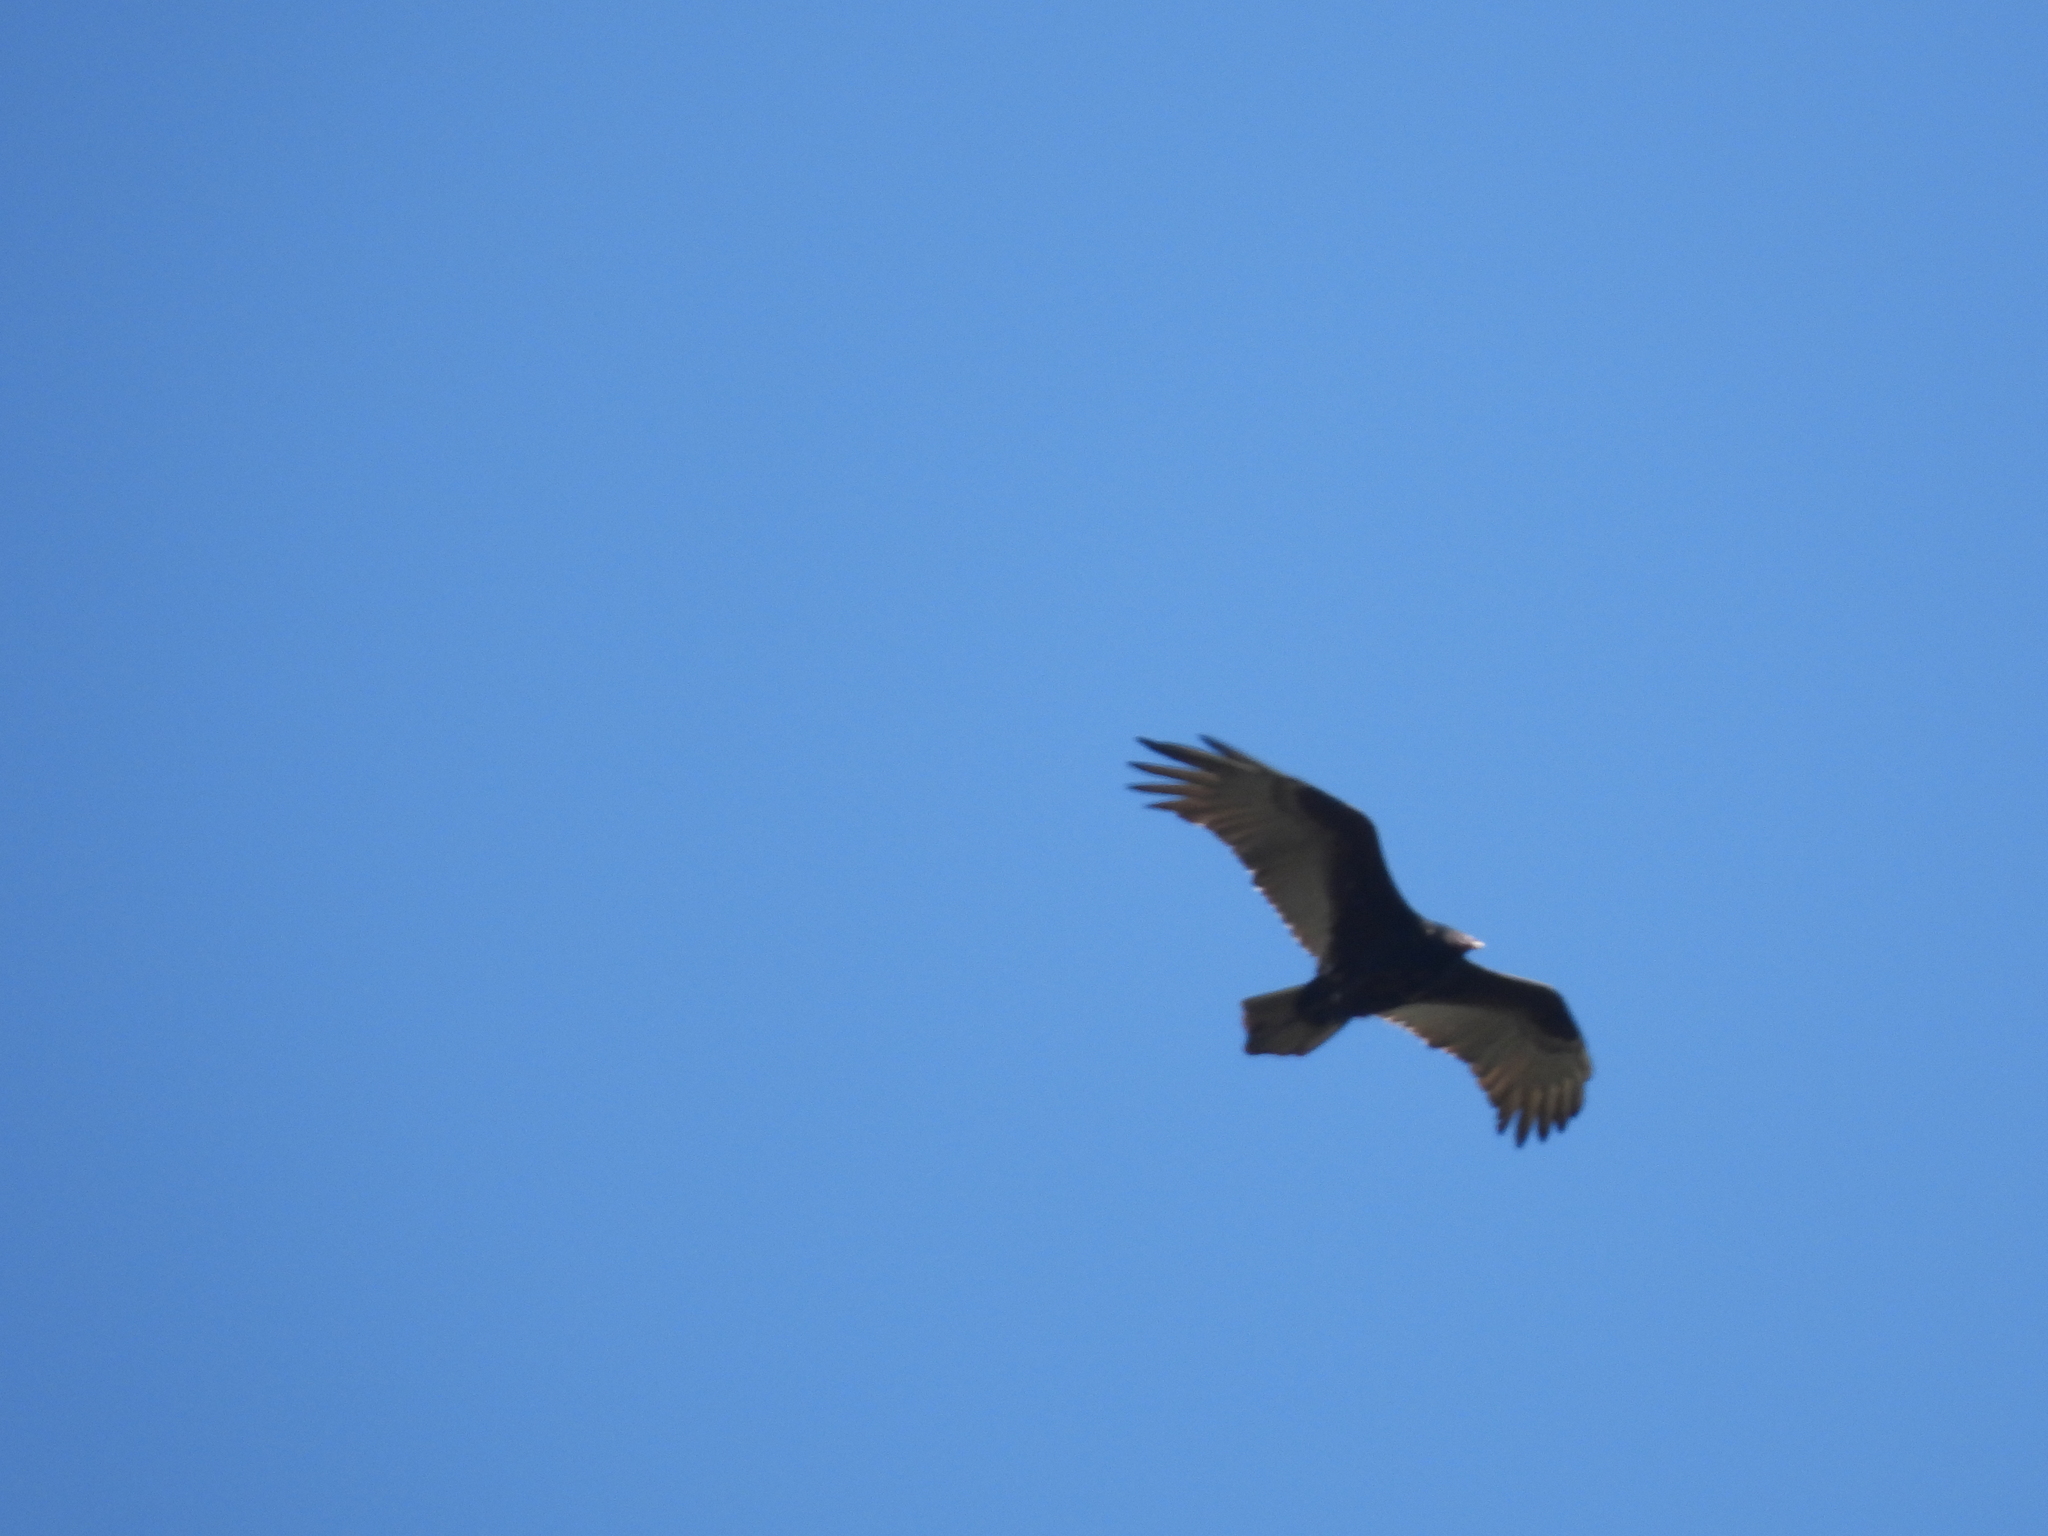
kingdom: Animalia
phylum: Chordata
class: Aves
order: Accipitriformes
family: Cathartidae
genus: Cathartes
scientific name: Cathartes aura
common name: Turkey vulture
